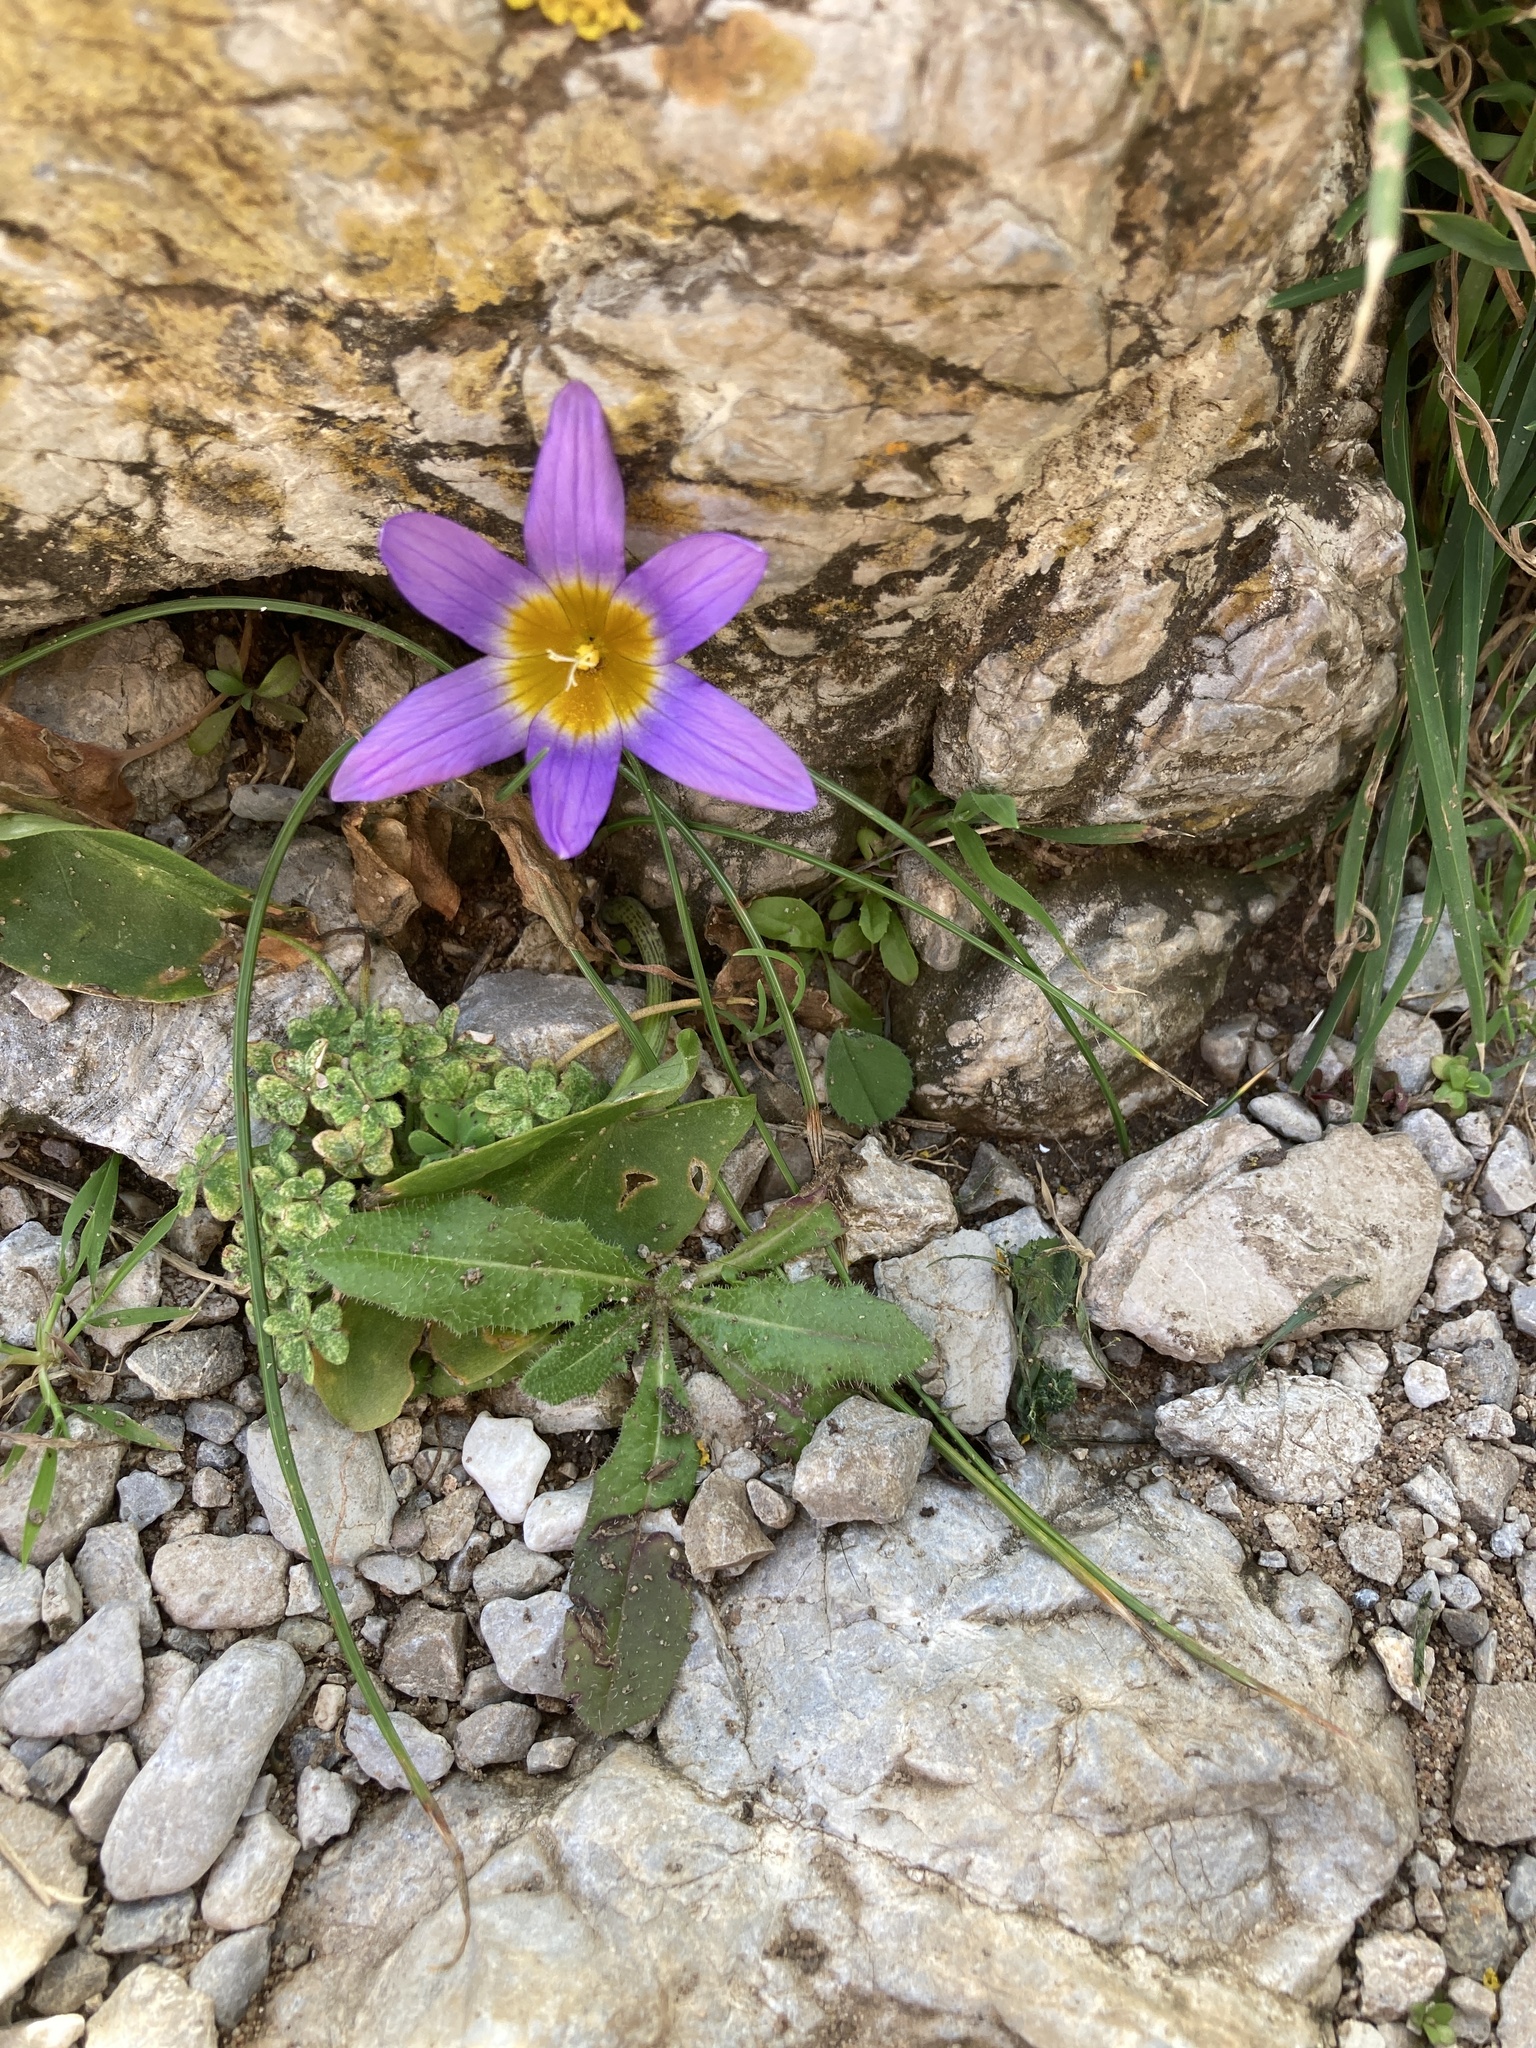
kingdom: Plantae
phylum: Tracheophyta
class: Liliopsida
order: Asparagales
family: Iridaceae
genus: Romulea
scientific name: Romulea clusiana
